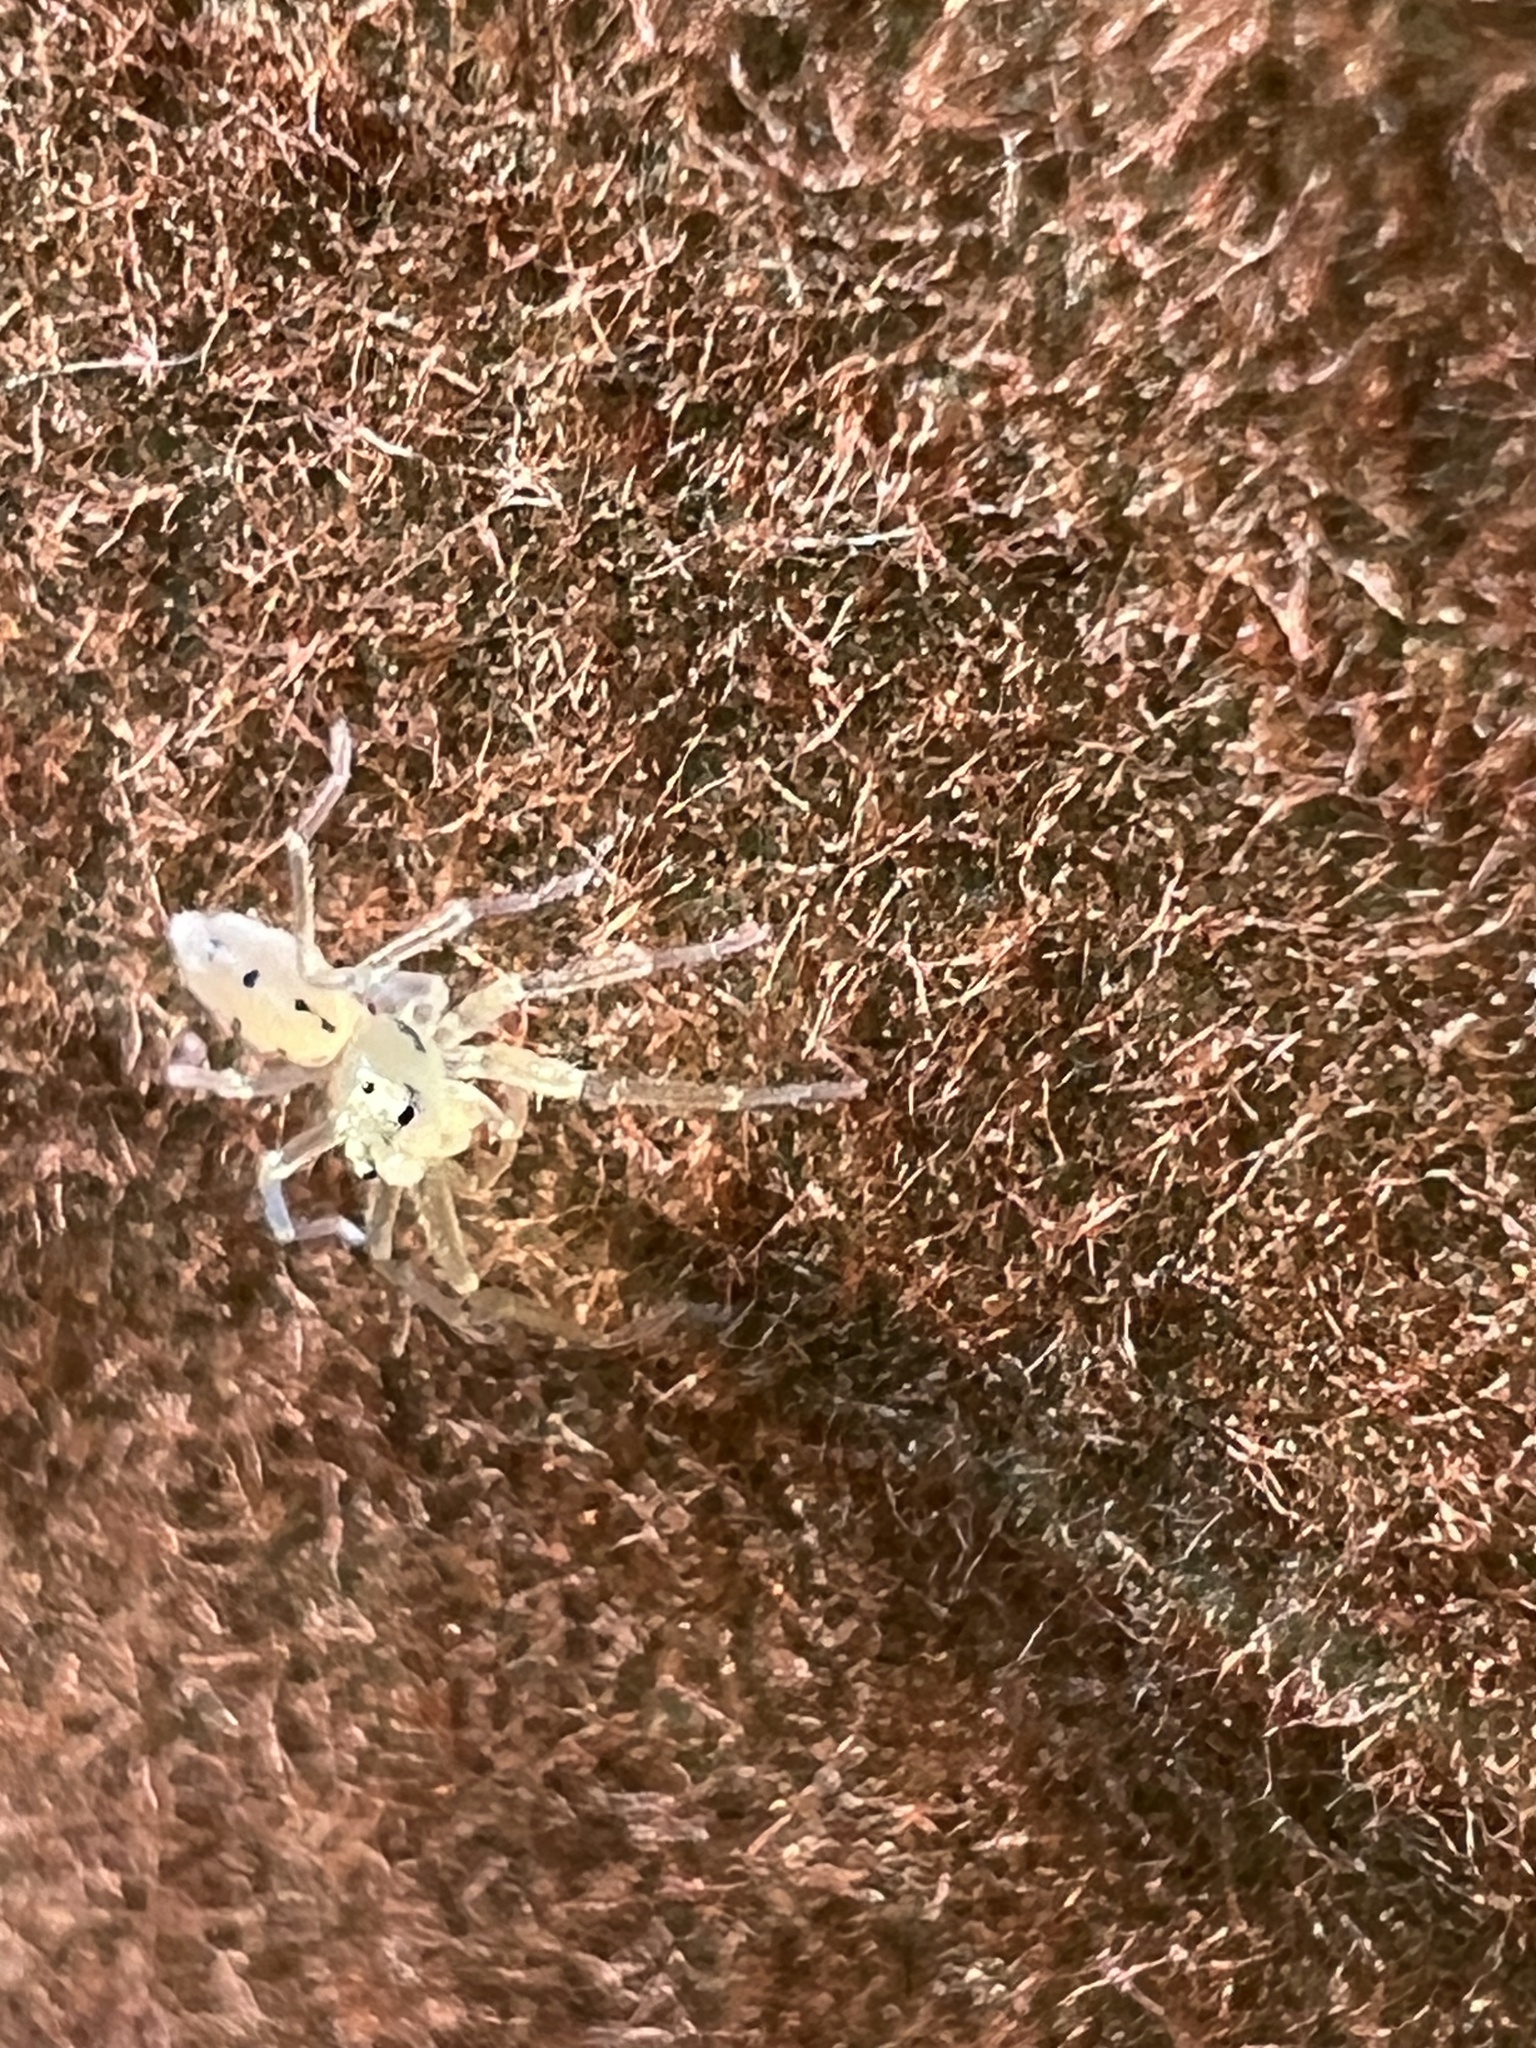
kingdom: Animalia
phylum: Arthropoda
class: Arachnida
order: Araneae
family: Salticidae
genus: Lyssomanes
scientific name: Lyssomanes viridis
